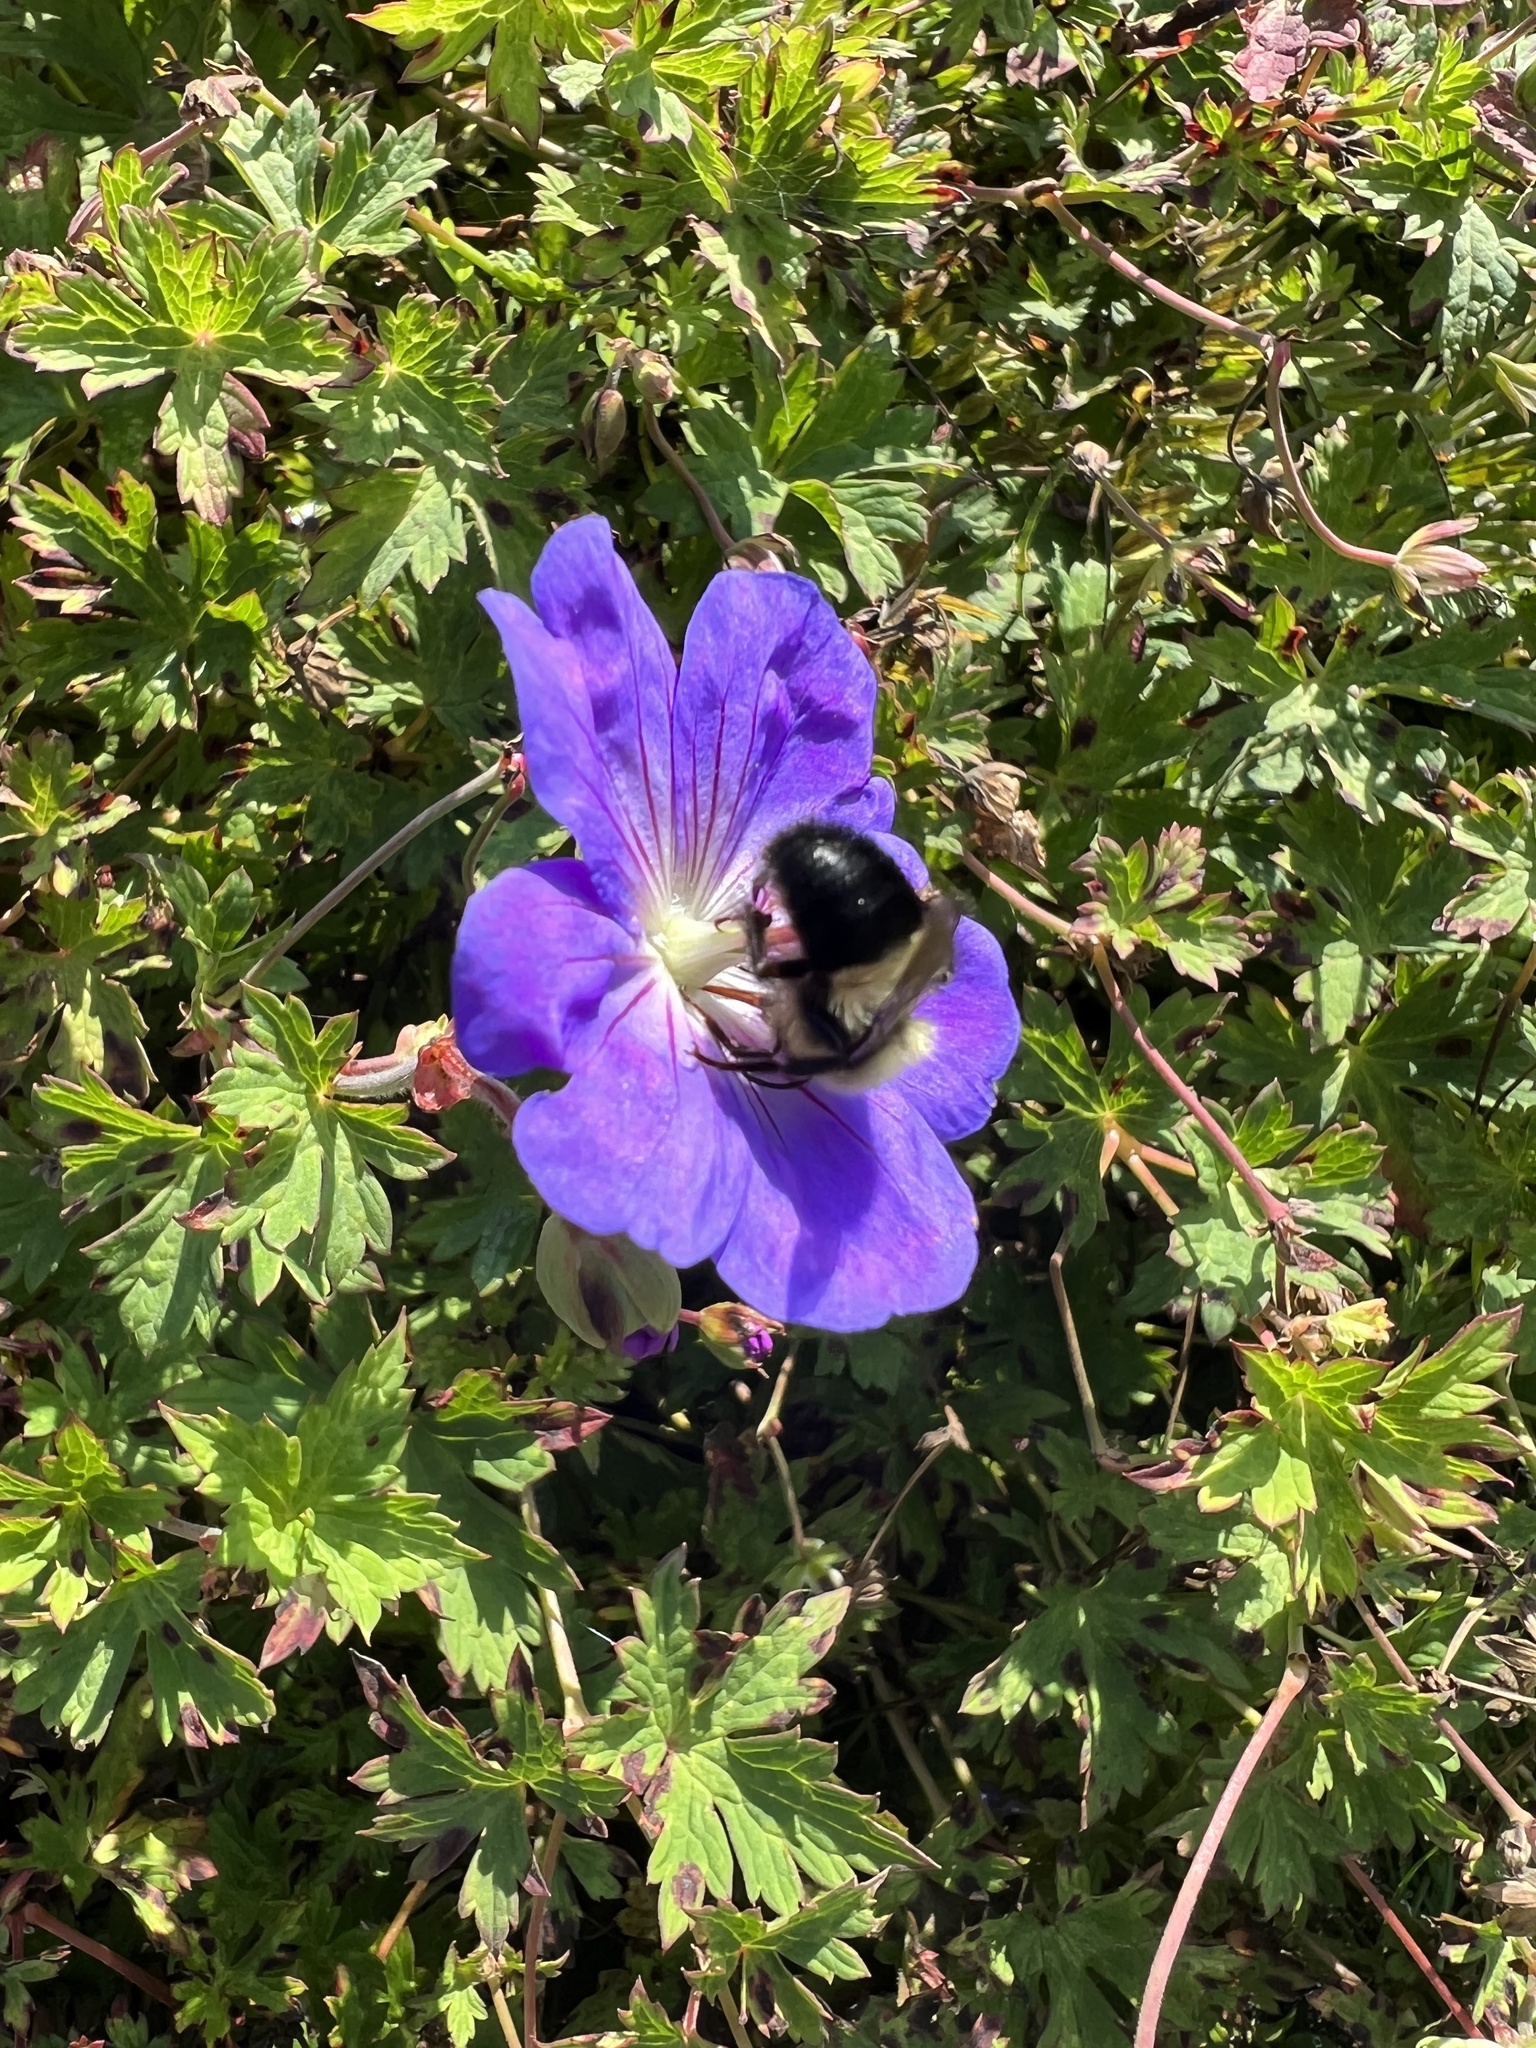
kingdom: Animalia
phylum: Arthropoda
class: Insecta
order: Hymenoptera
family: Apidae
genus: Bombus
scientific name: Bombus impatiens
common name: Common eastern bumble bee
